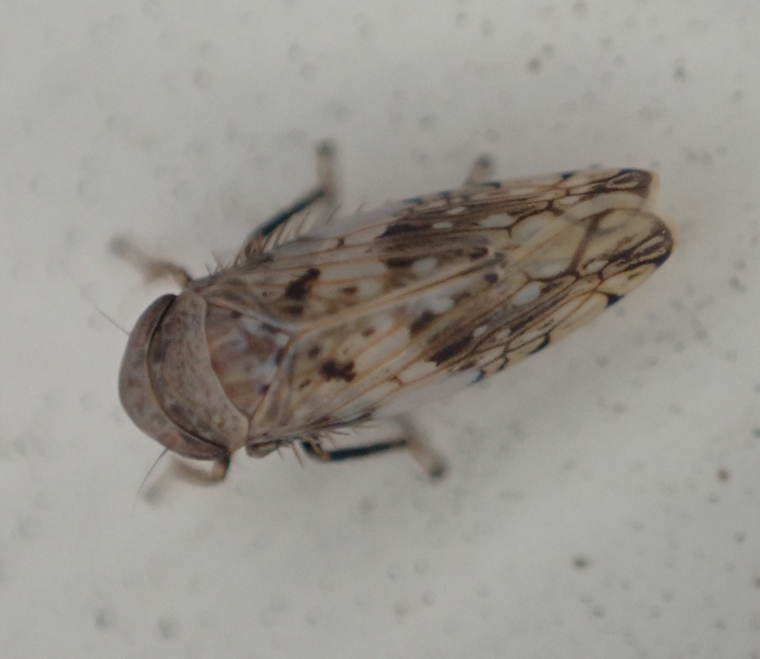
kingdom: Animalia
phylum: Arthropoda
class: Insecta
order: Hemiptera
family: Cicadellidae
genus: Menosoma
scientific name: Menosoma cinctum
